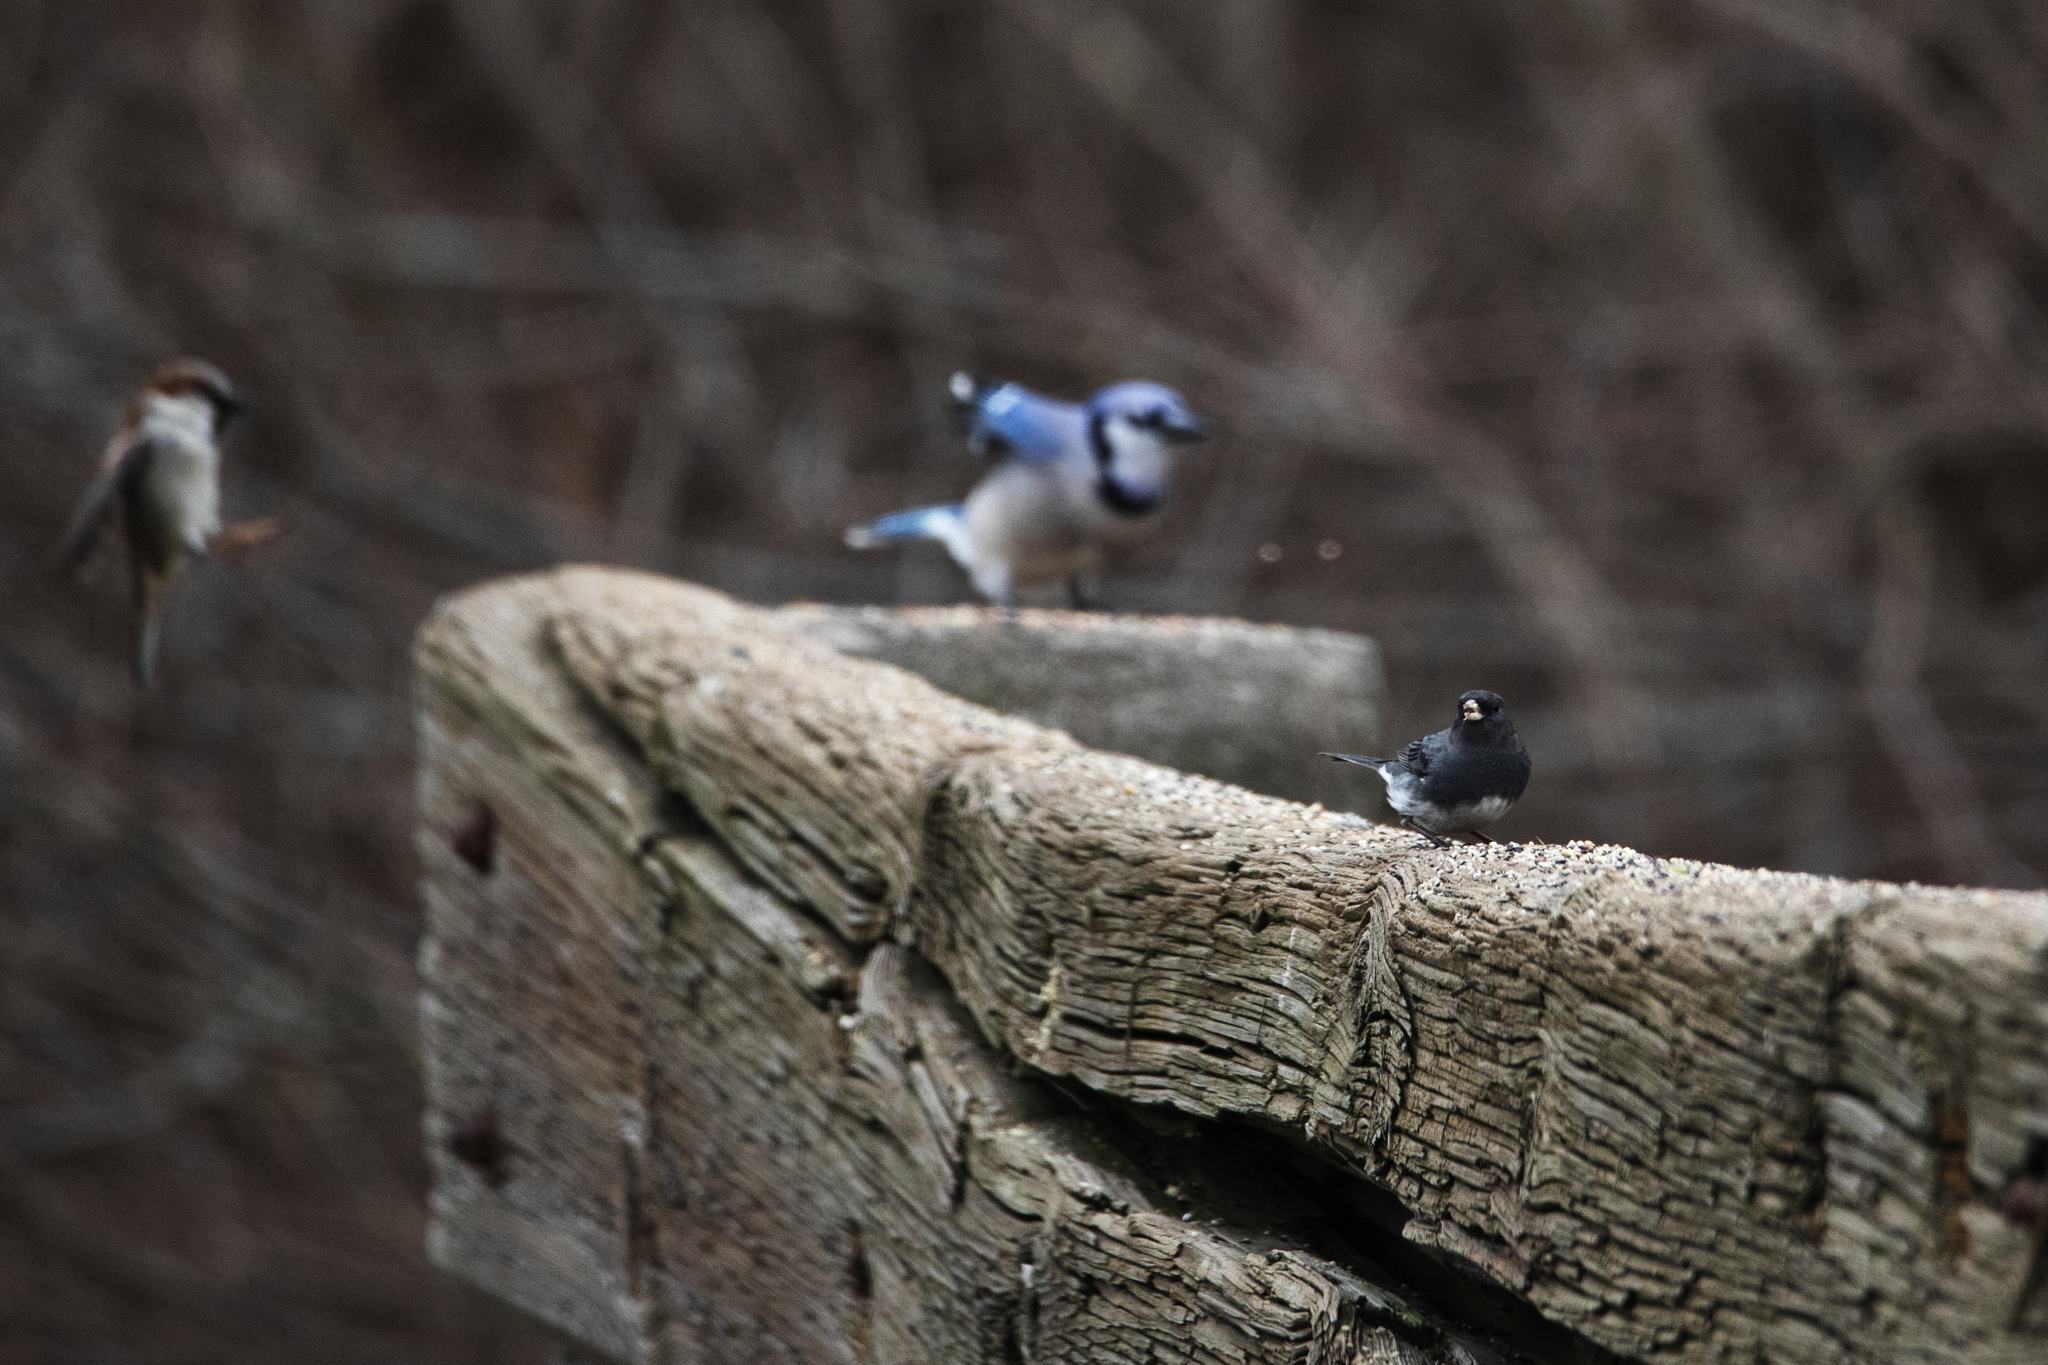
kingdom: Animalia
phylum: Chordata
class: Aves
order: Passeriformes
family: Passerellidae
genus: Junco
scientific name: Junco hyemalis
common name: Dark-eyed junco
